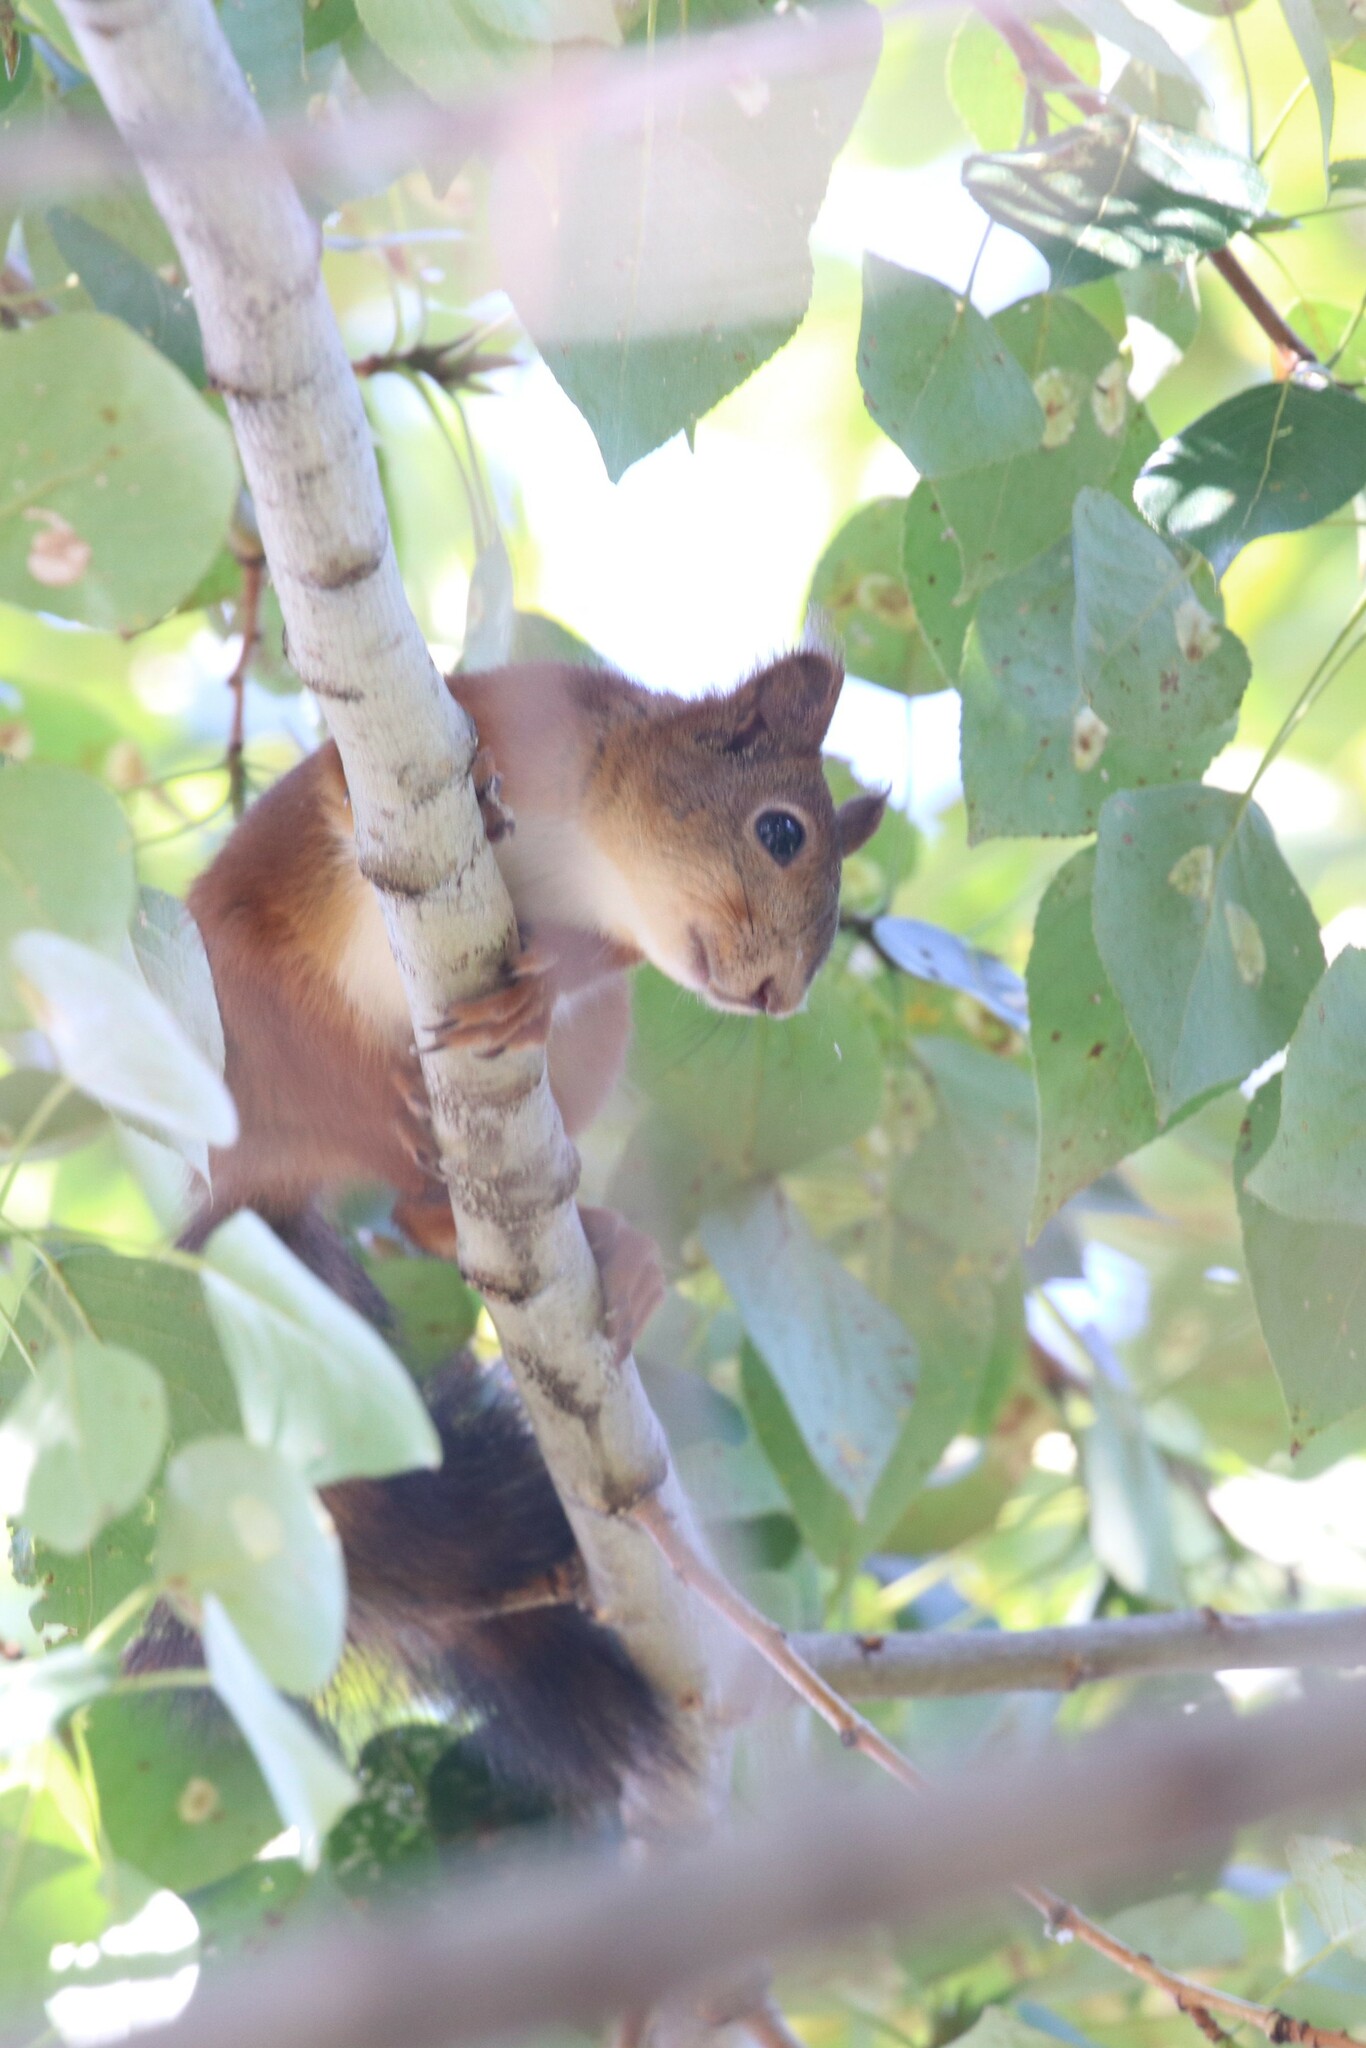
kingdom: Animalia
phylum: Chordata
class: Mammalia
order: Rodentia
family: Sciuridae
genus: Sciurus
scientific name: Sciurus vulgaris
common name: Eurasian red squirrel
